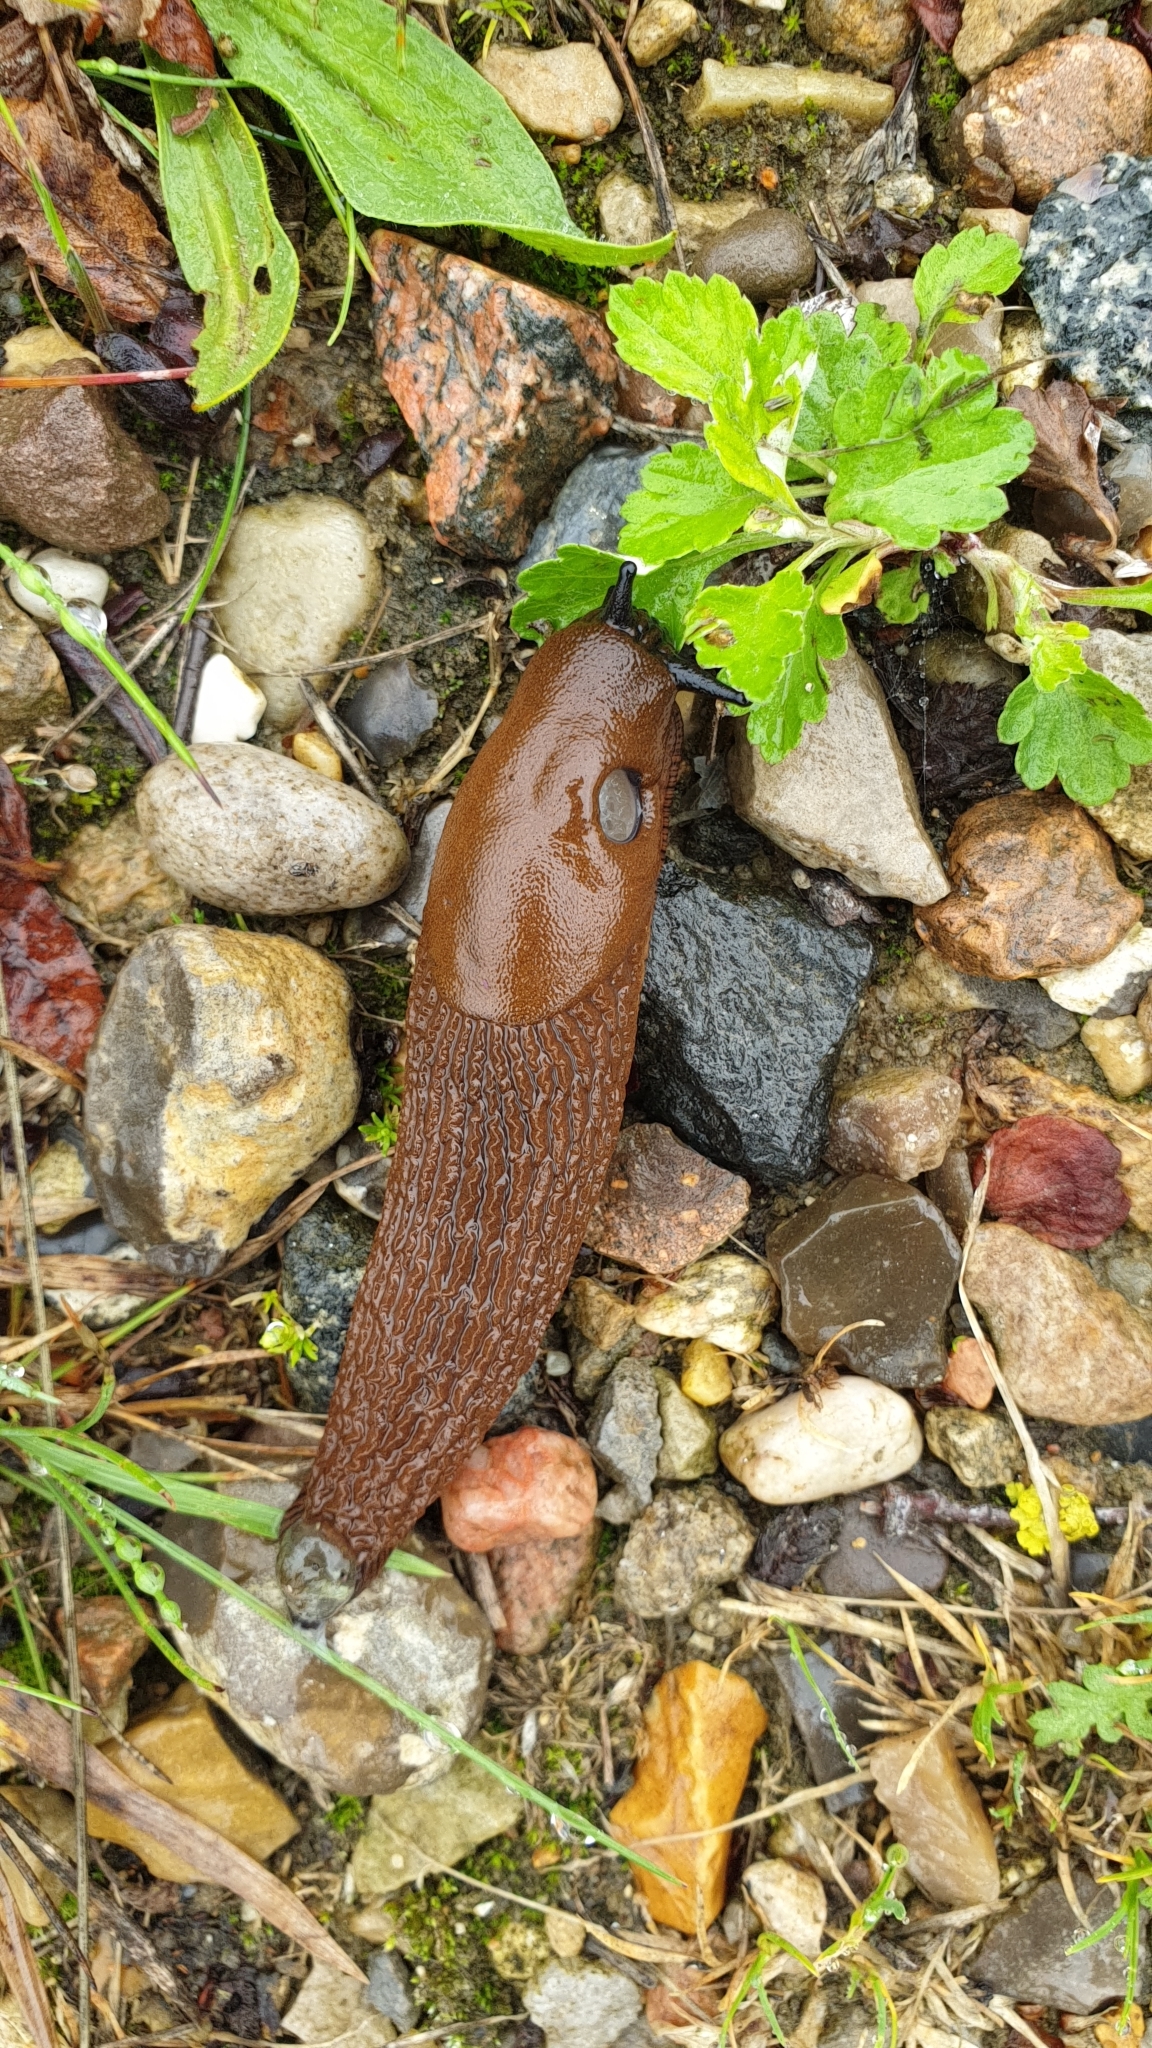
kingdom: Animalia
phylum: Mollusca
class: Gastropoda
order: Stylommatophora
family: Arionidae
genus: Arion
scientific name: Arion vulgaris
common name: Lusitanian slug
